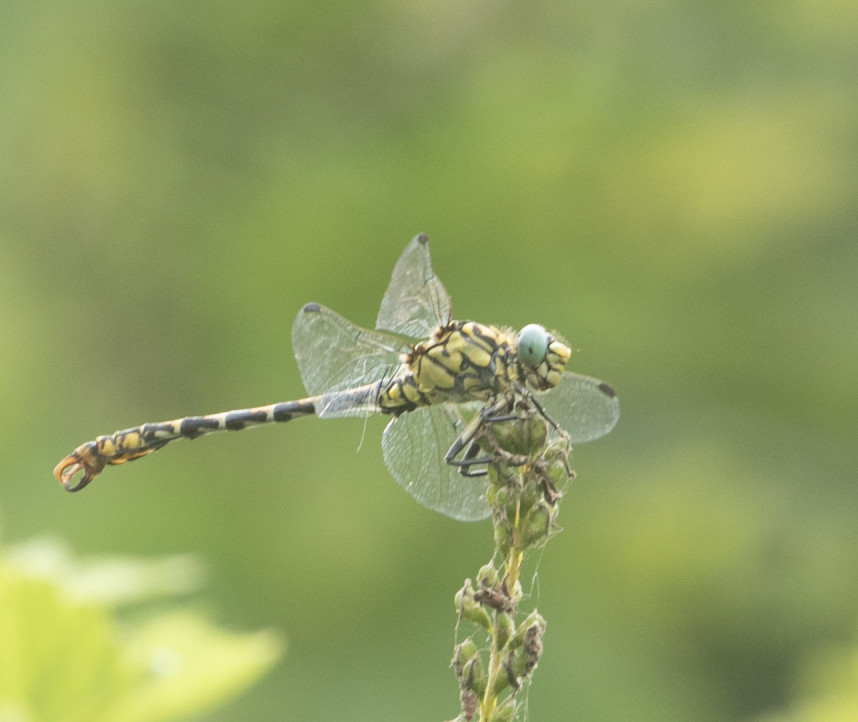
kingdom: Animalia
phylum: Arthropoda
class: Insecta
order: Odonata
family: Gomphidae
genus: Onychogomphus
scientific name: Onychogomphus forcipatus
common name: Small pincertail
